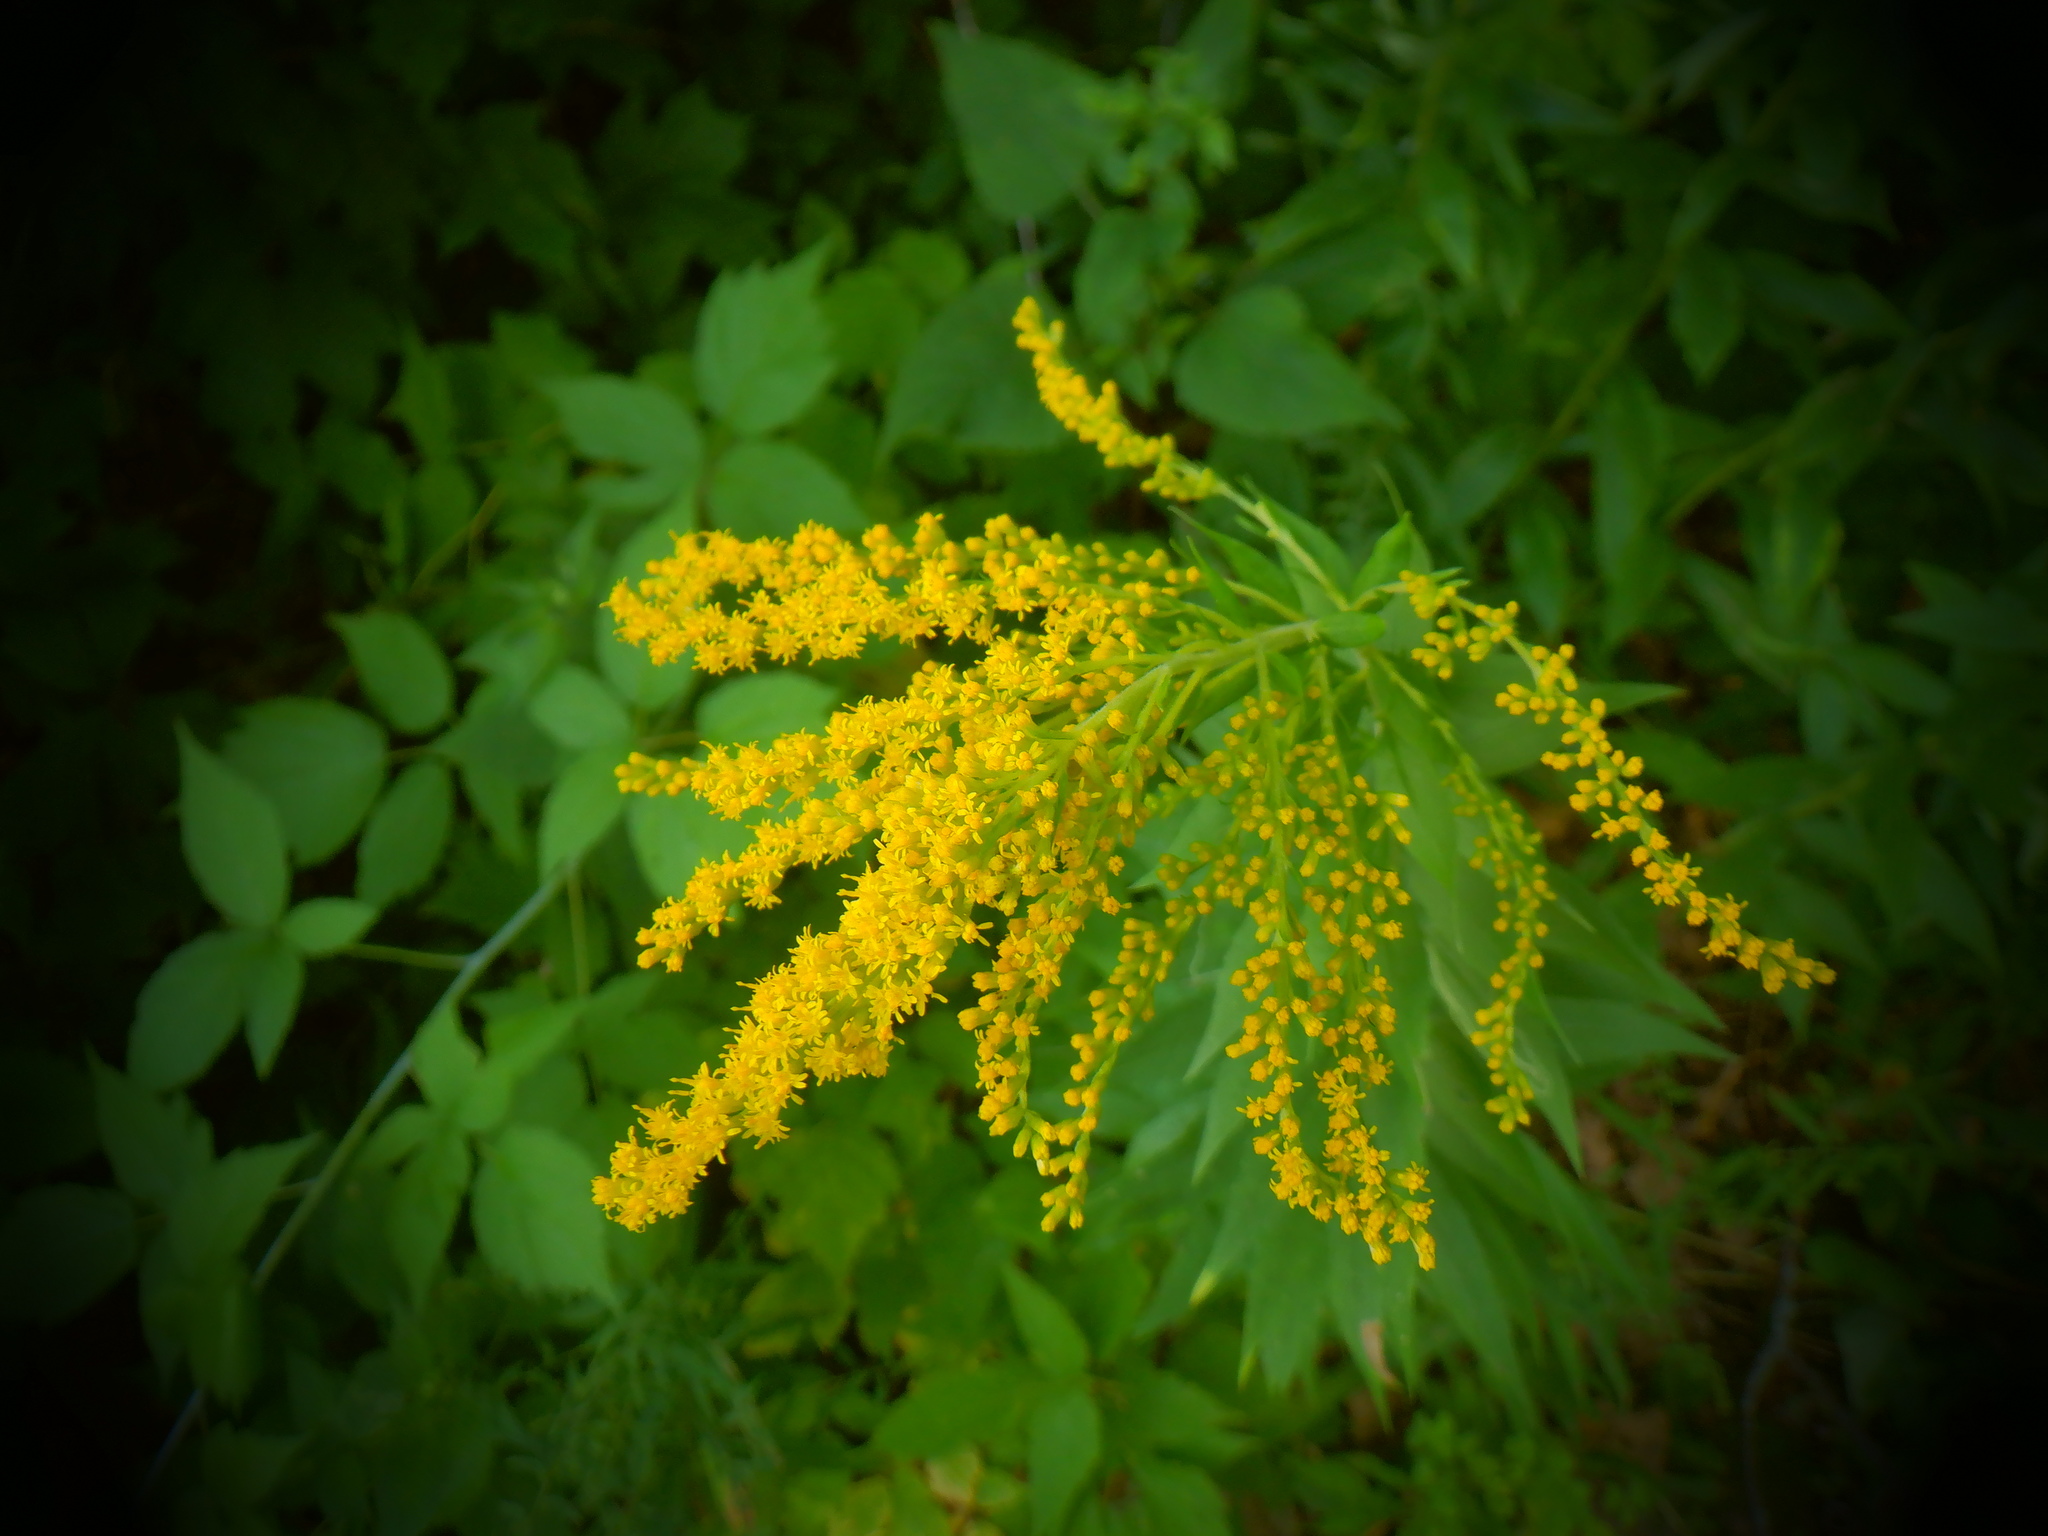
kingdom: Plantae
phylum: Tracheophyta
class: Magnoliopsida
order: Asterales
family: Asteraceae
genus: Solidago
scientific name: Solidago juncea
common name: Early goldenrod
